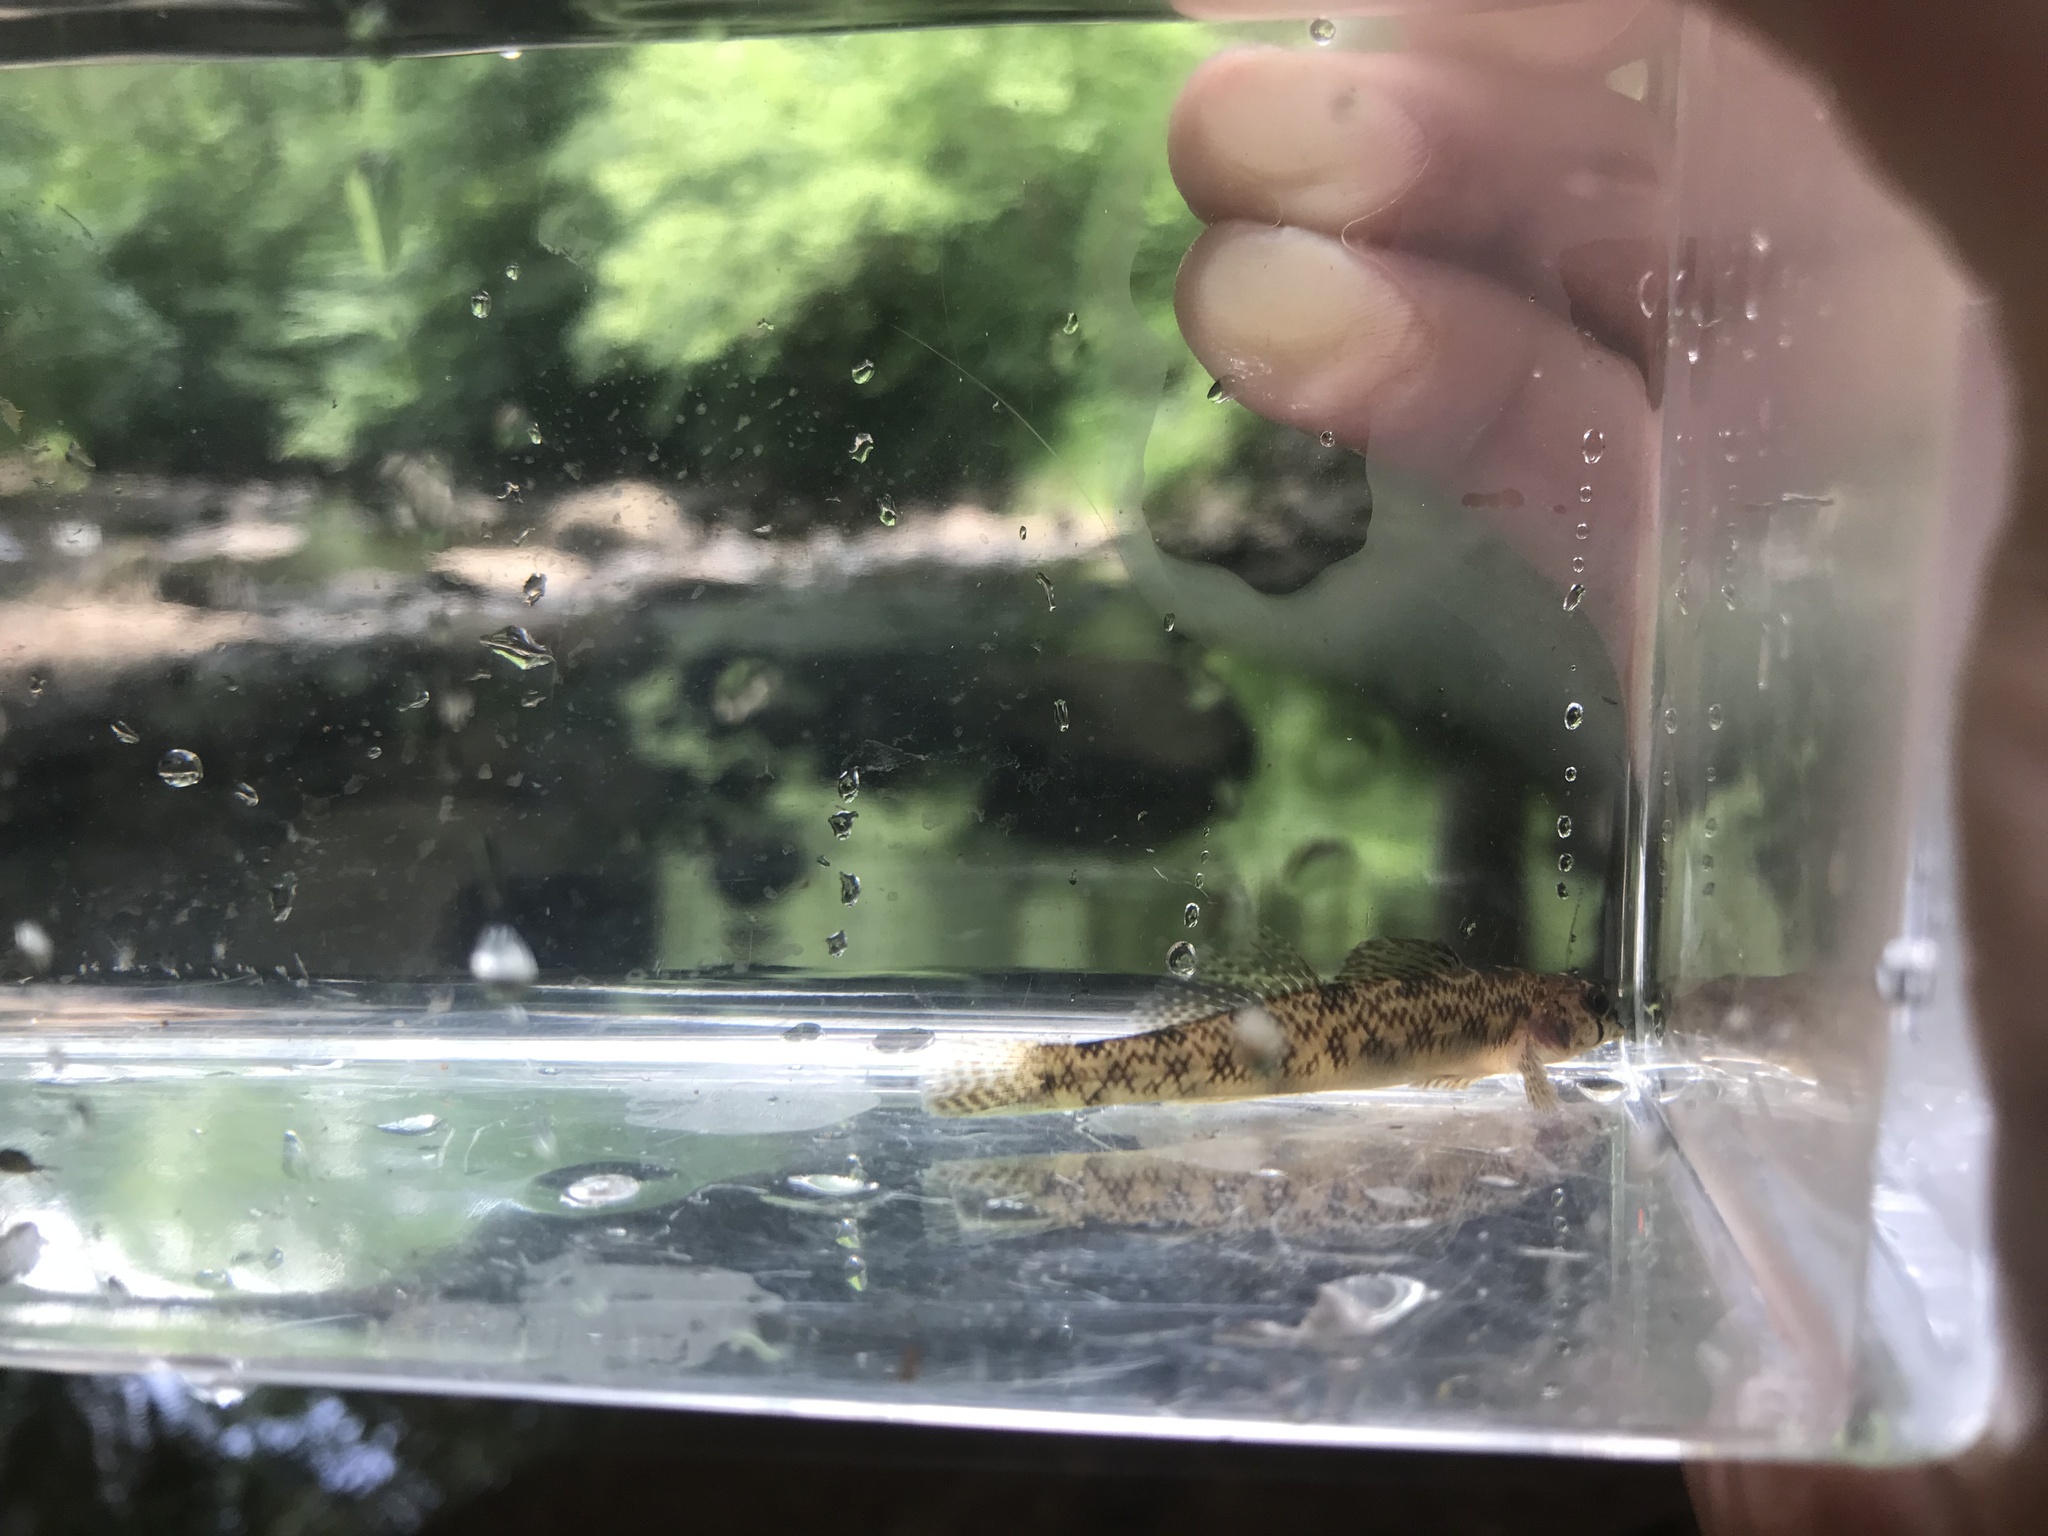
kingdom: Animalia
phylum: Chordata
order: Perciformes
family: Percidae
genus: Etheostoma
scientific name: Etheostoma olmstedi
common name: Tessellated darter
